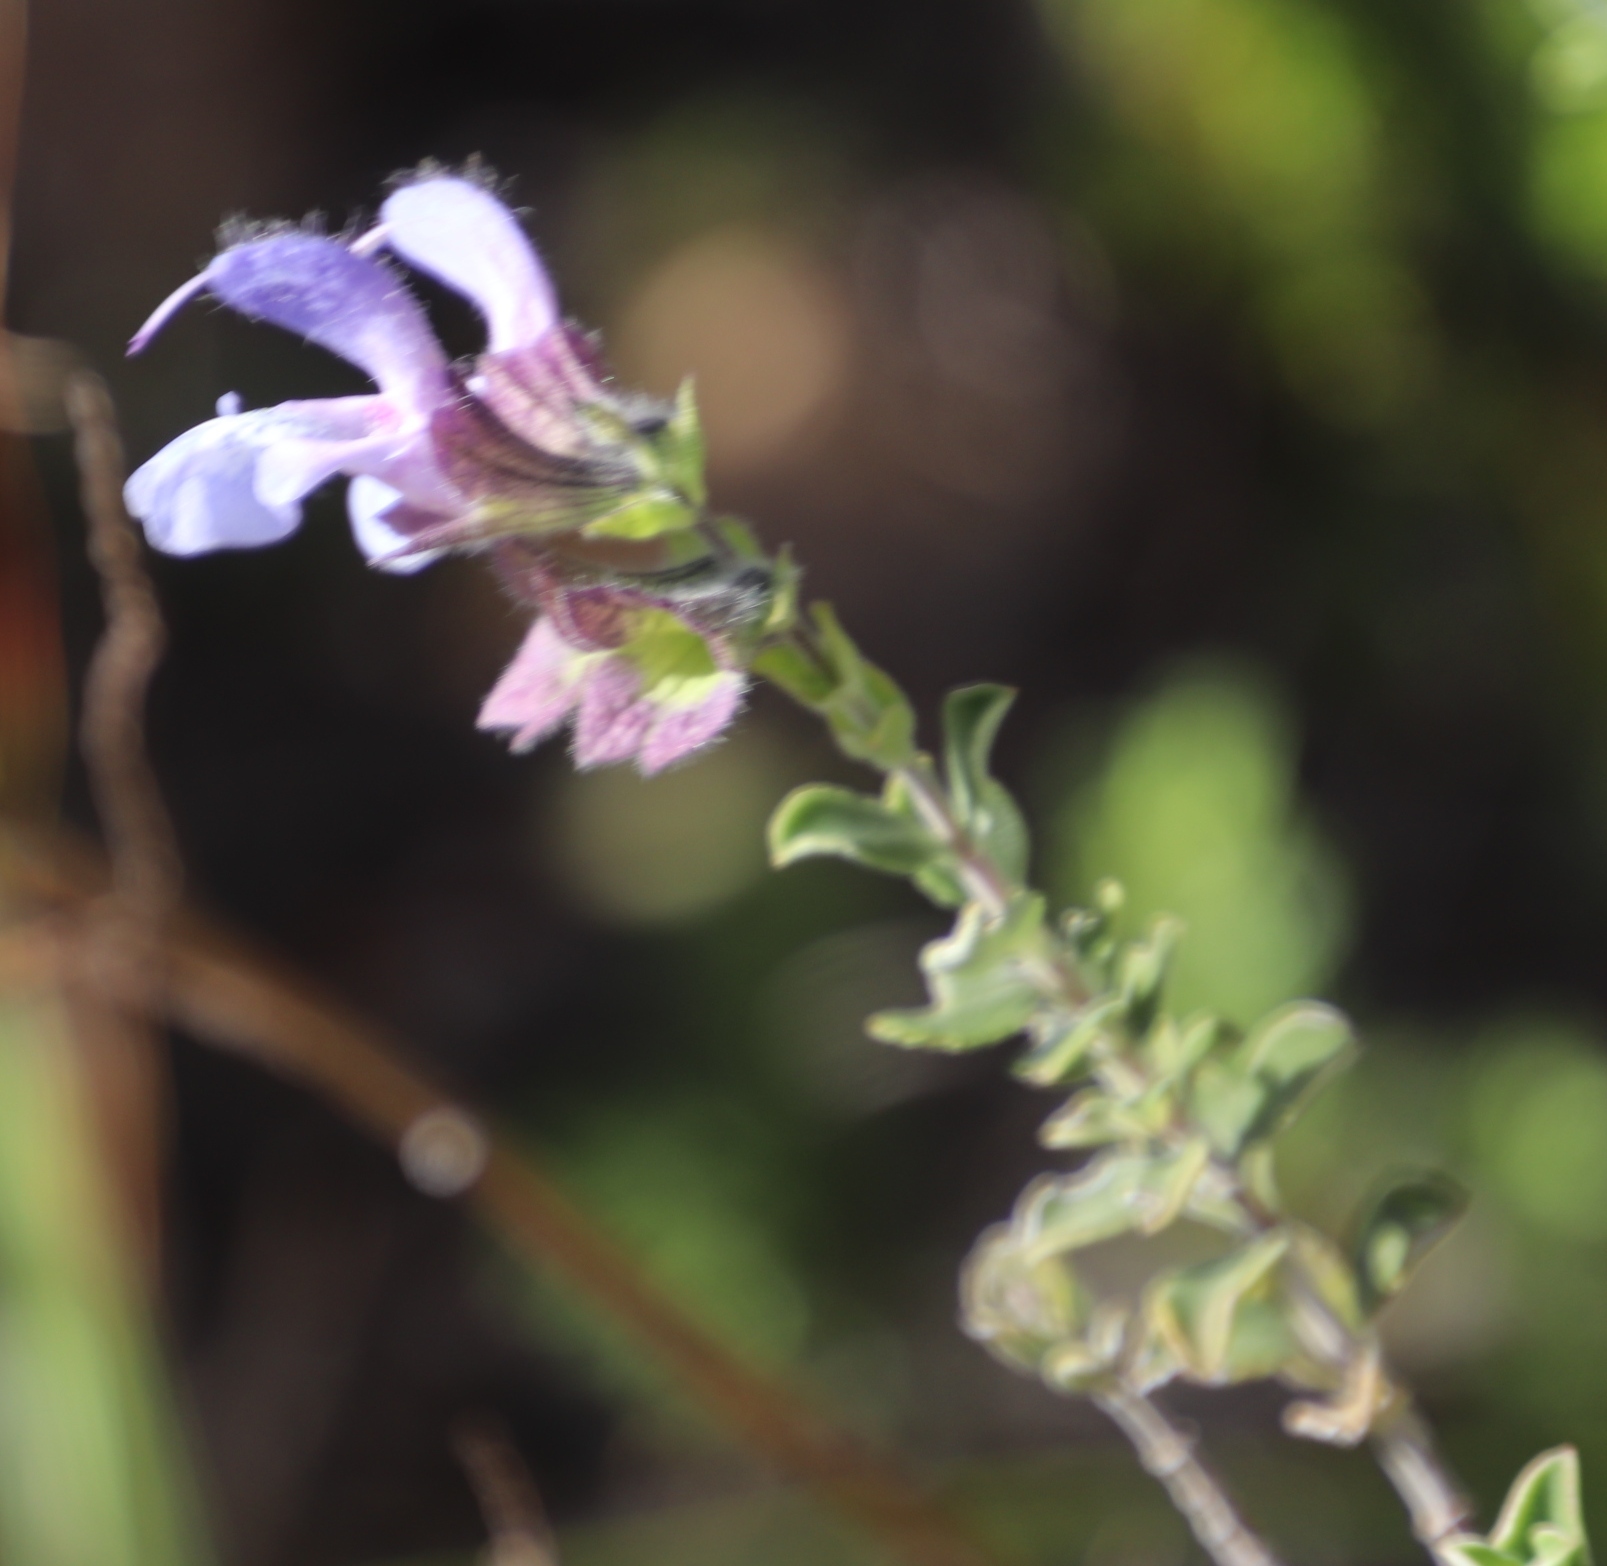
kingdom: Plantae
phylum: Tracheophyta
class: Magnoliopsida
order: Lamiales
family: Lamiaceae
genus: Salvia
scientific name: Salvia africana
